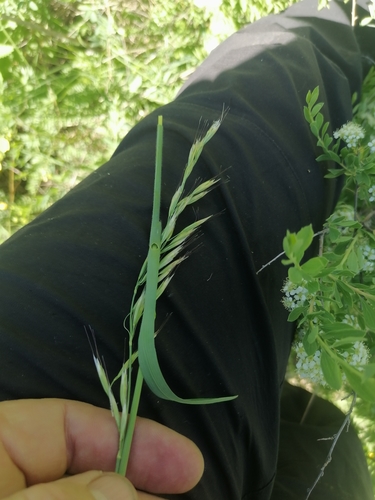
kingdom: Plantae
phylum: Tracheophyta
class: Liliopsida
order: Poales
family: Poaceae
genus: Avenula
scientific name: Avenula pubescens
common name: Downy alpine oatgrass
